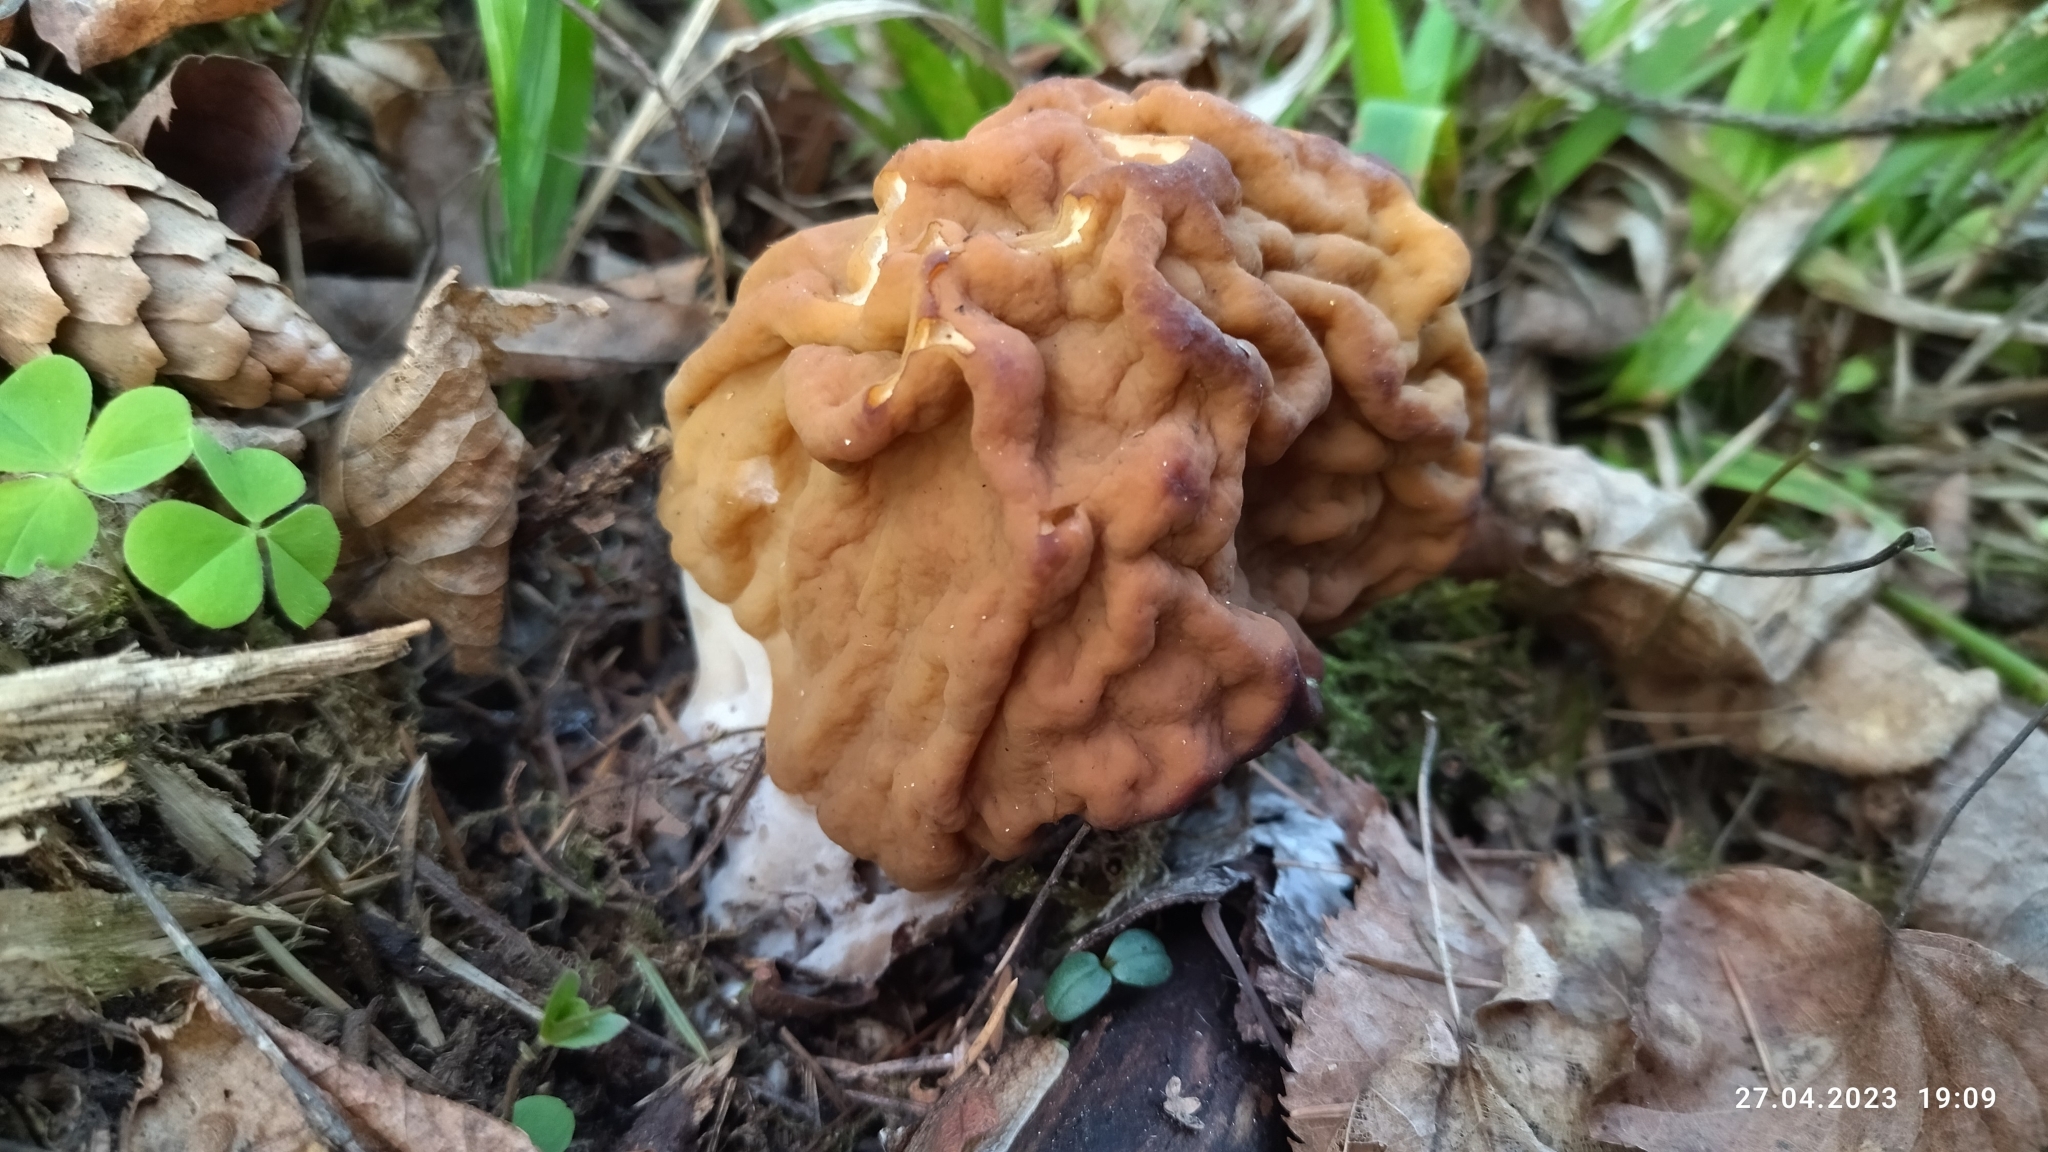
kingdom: Fungi
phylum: Ascomycota
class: Pezizomycetes
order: Pezizales
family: Discinaceae
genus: Gyromitra
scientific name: Gyromitra gigas
